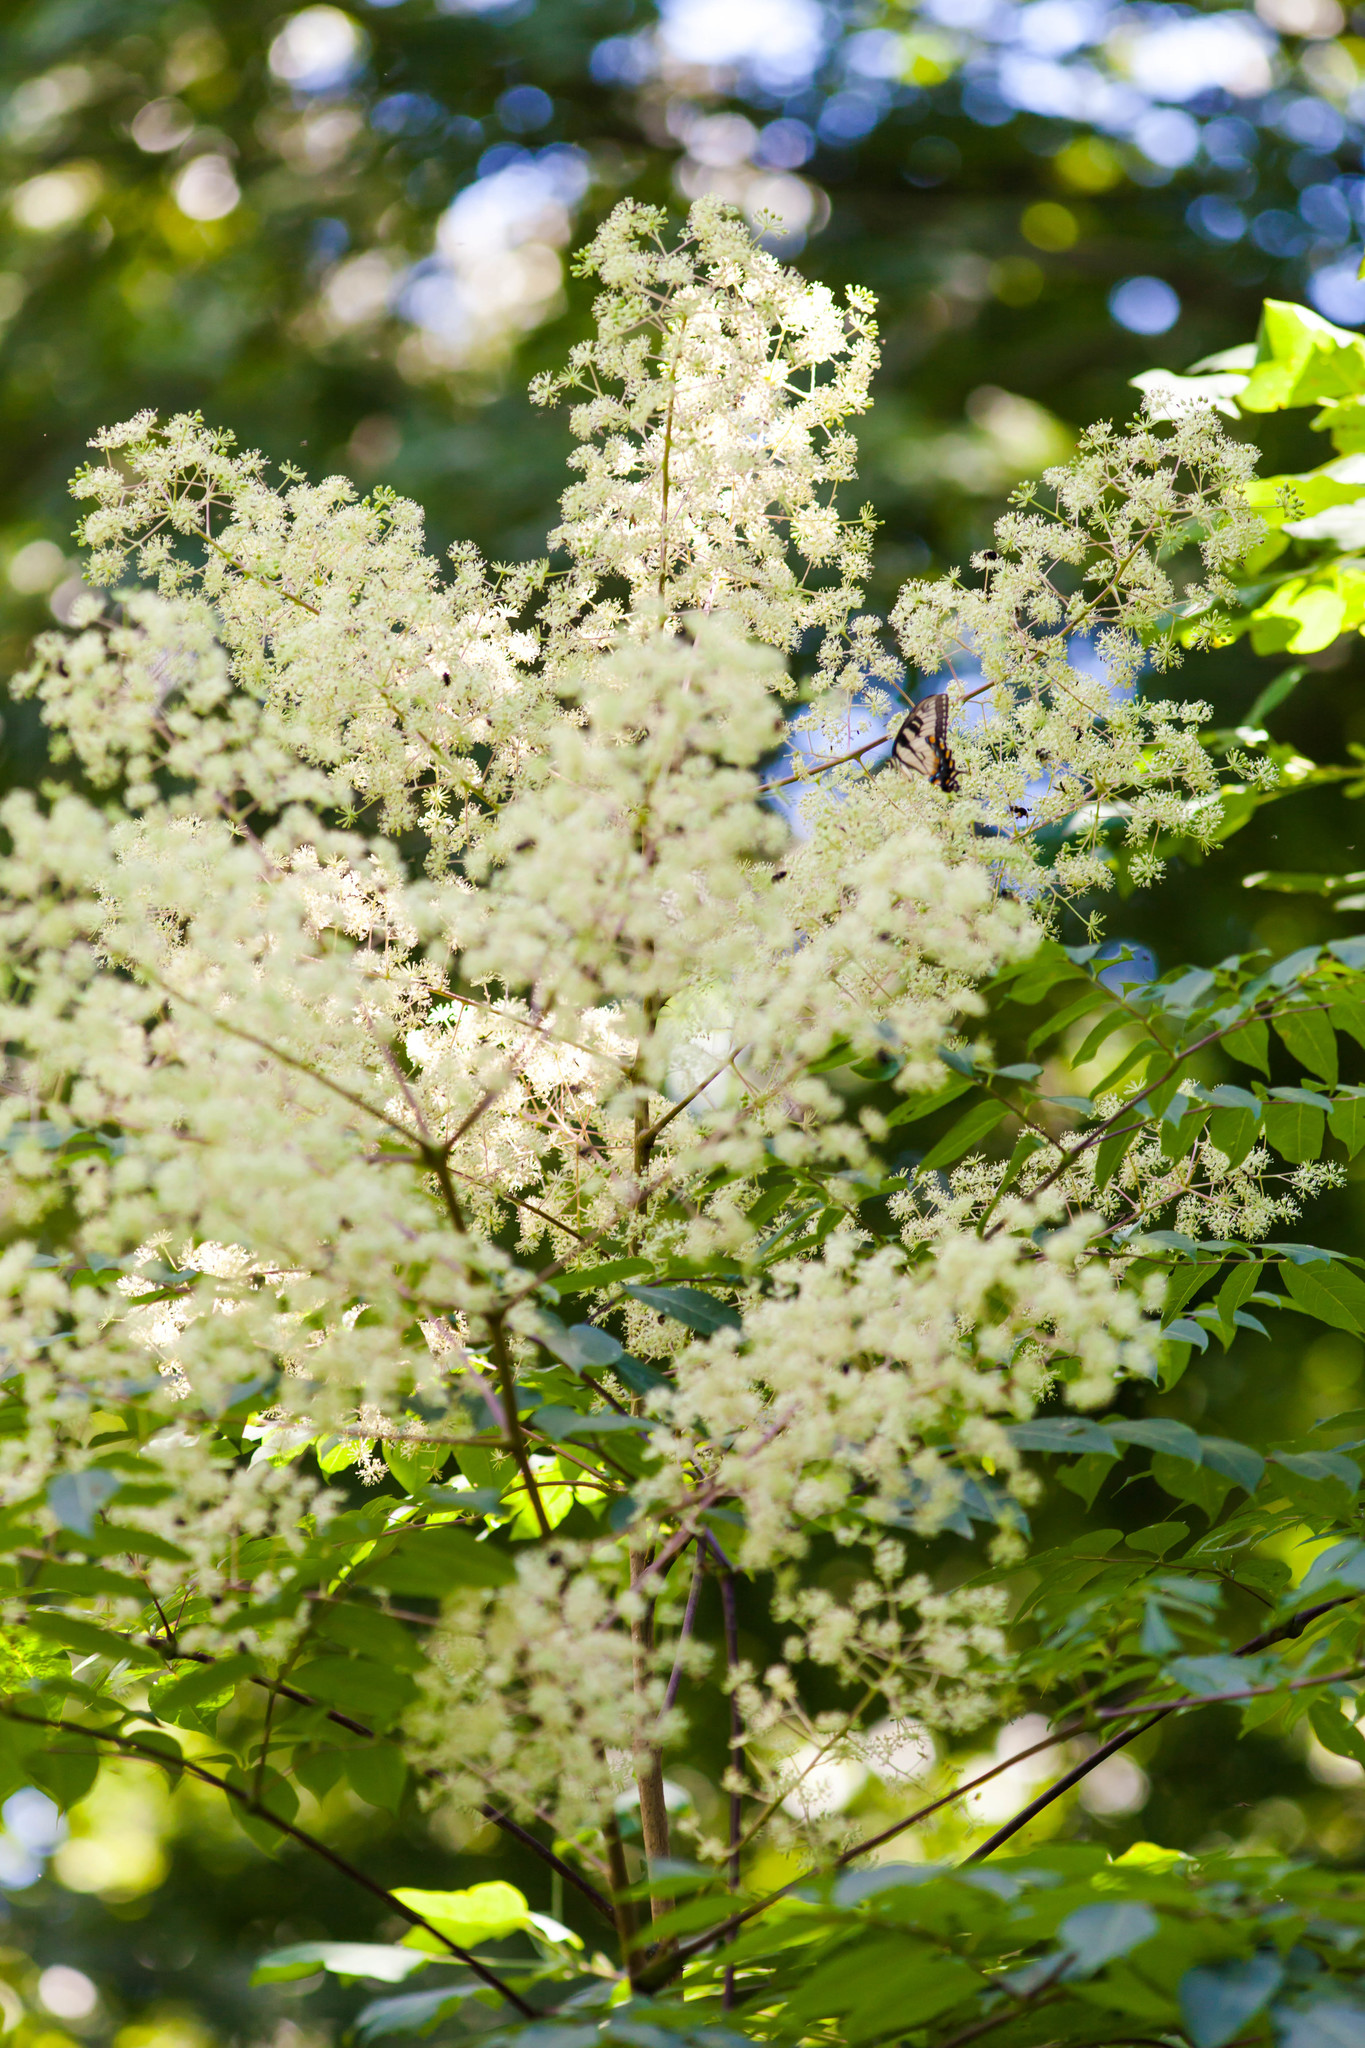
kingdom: Plantae
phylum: Tracheophyta
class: Magnoliopsida
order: Apiales
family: Araliaceae
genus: Aralia
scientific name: Aralia spinosa
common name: Hercules'-club
